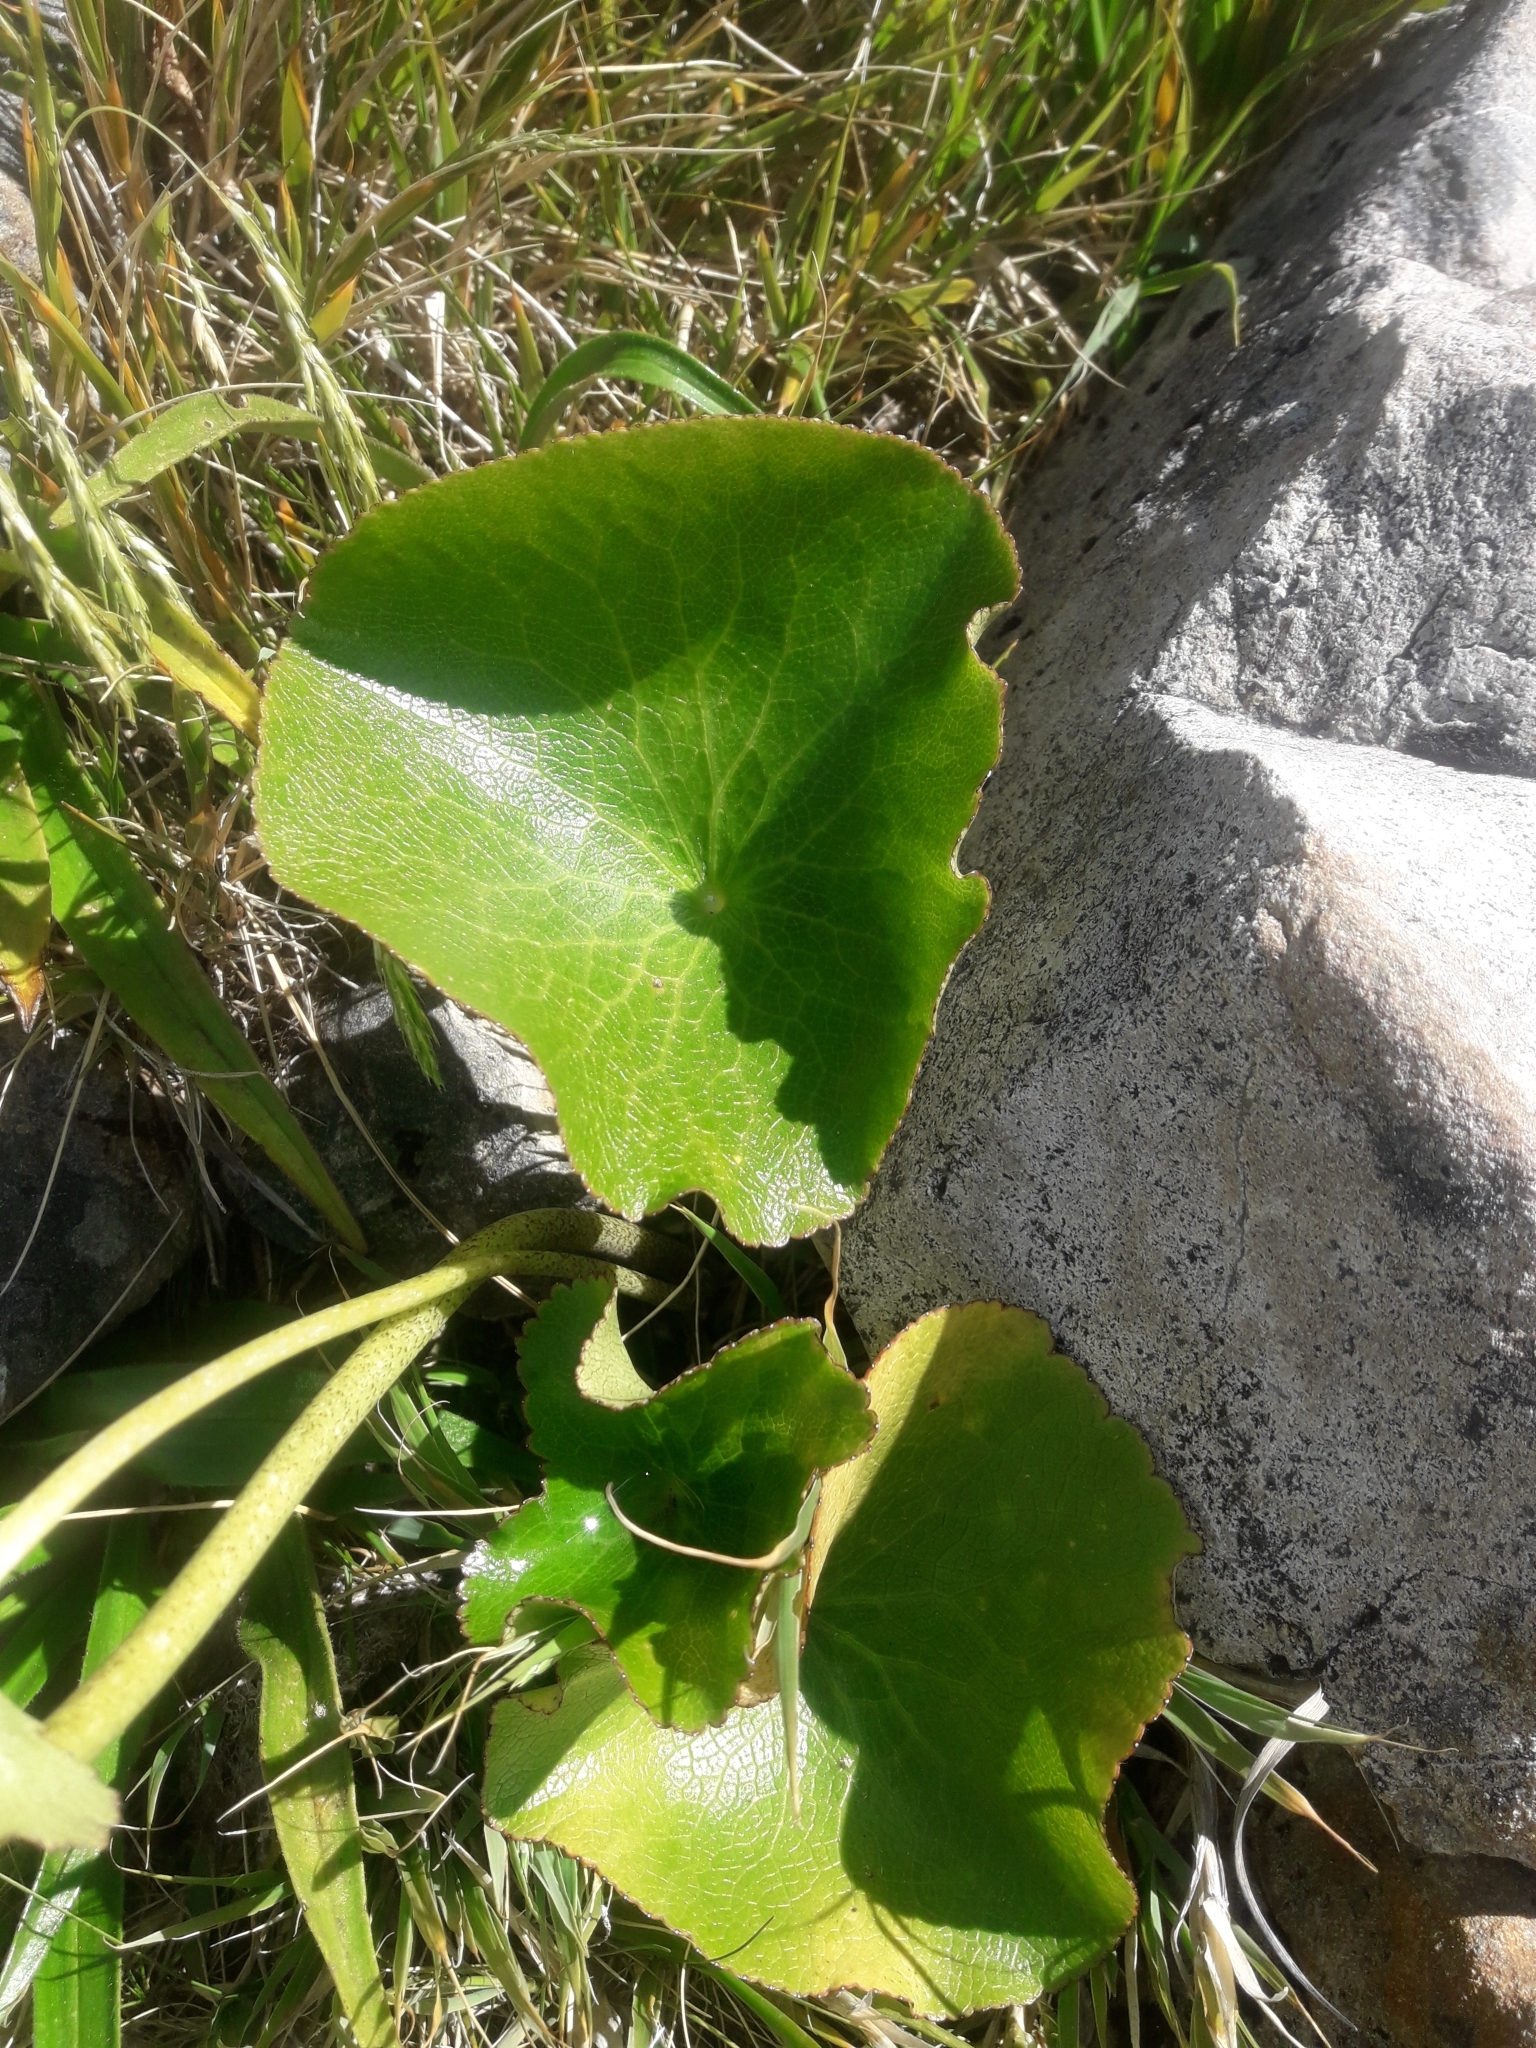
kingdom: Plantae
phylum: Tracheophyta
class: Magnoliopsida
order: Ranunculales
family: Ranunculaceae
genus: Ranunculus
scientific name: Ranunculus lyallii
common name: Mountain-lily
